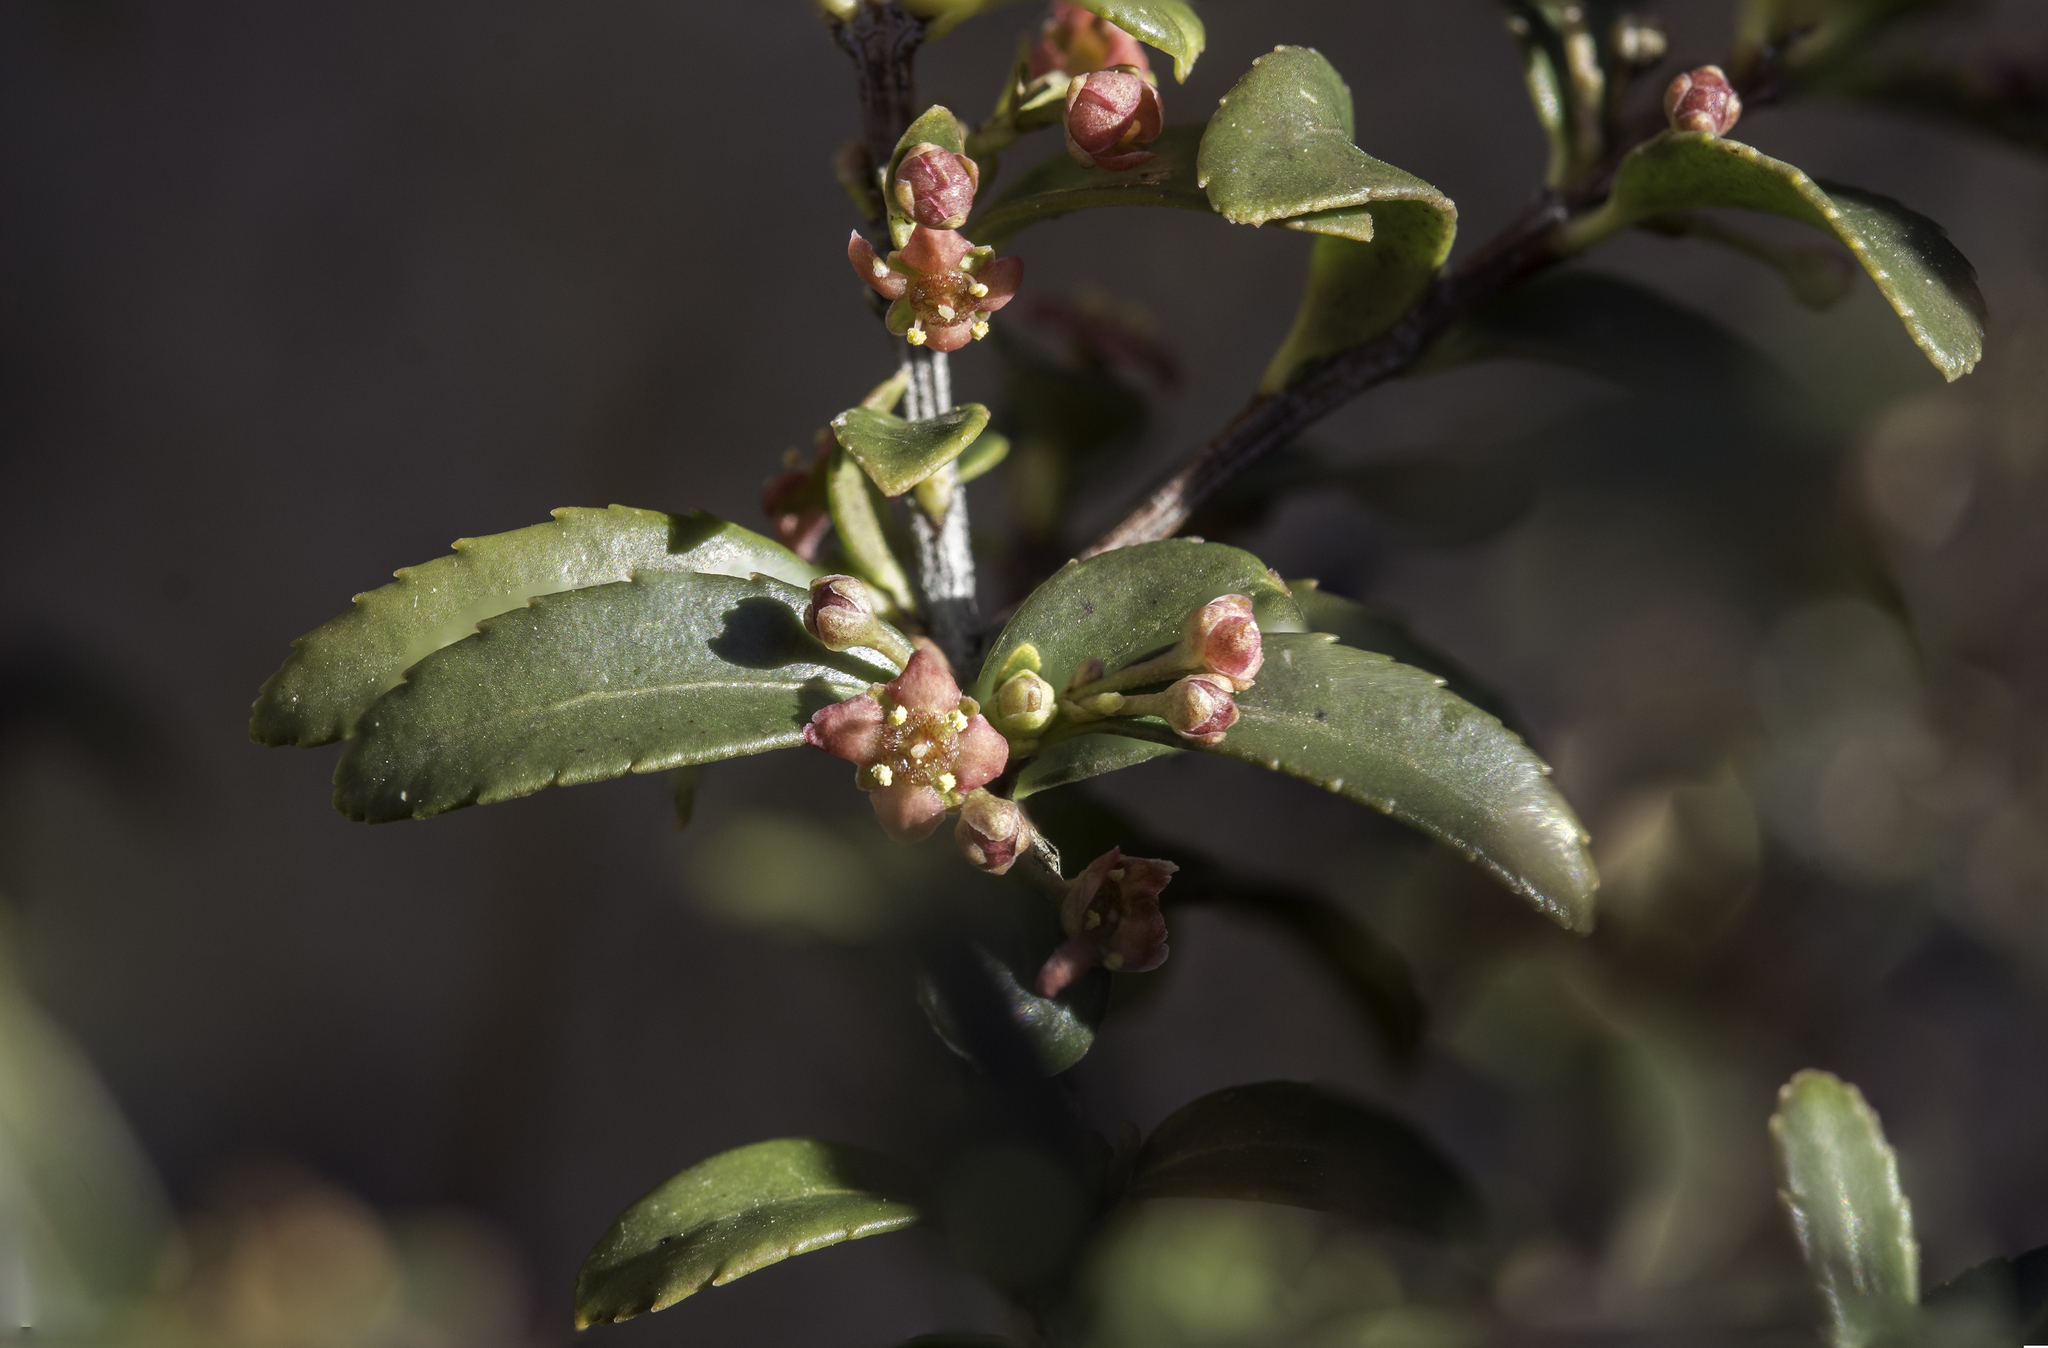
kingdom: Plantae
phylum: Tracheophyta
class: Magnoliopsida
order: Celastrales
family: Celastraceae
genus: Paxistima
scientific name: Paxistima myrsinites
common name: Mountain-lover
